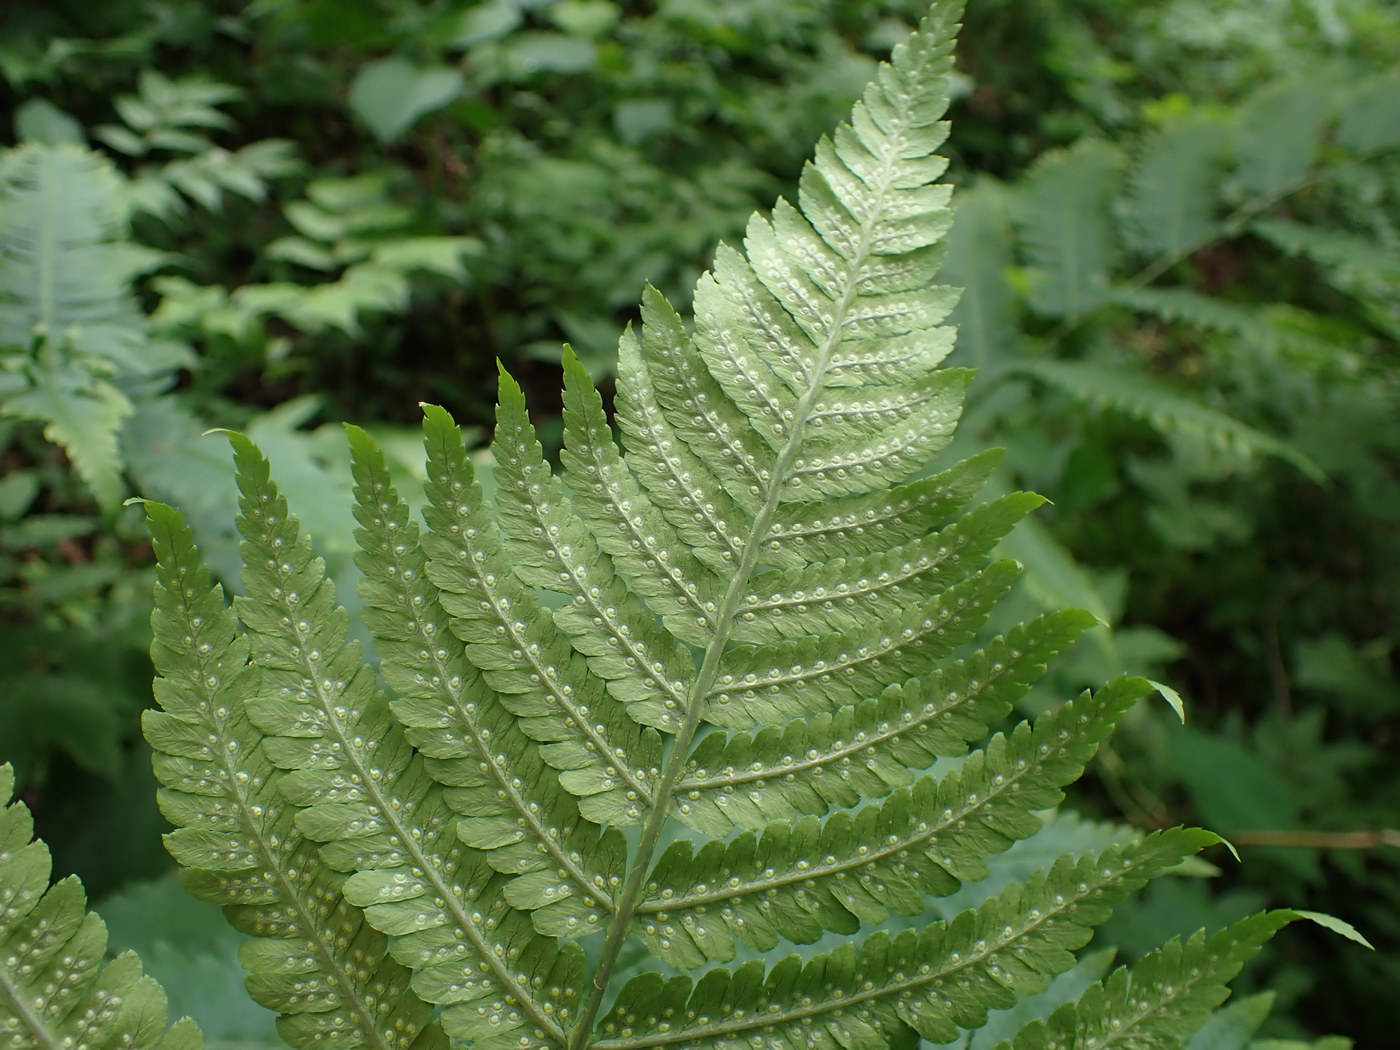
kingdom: Plantae
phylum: Tracheophyta
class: Polypodiopsida
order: Polypodiales
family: Dryopteridaceae
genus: Dryopteris
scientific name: Dryopteris goldieana
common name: Goldie's fern
